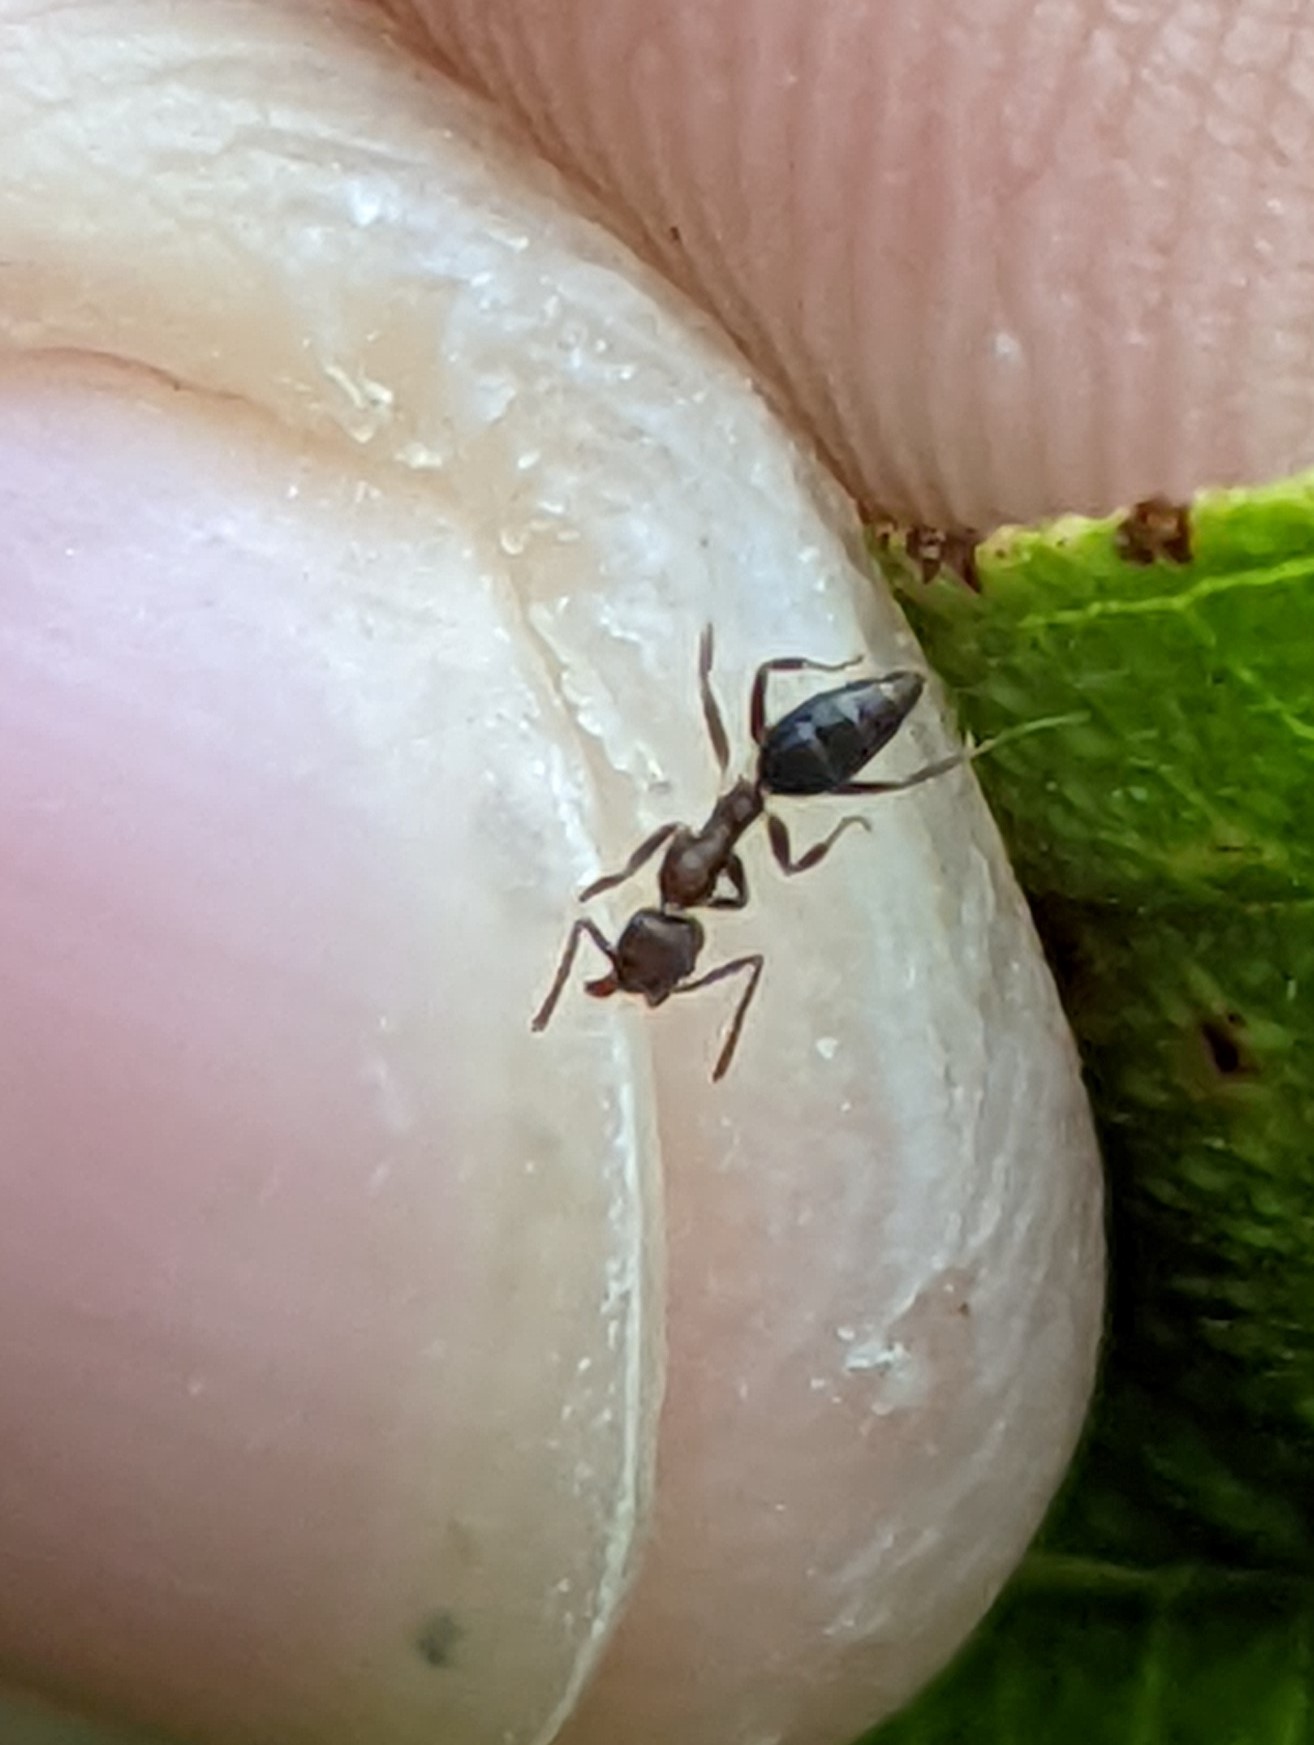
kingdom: Animalia
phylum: Arthropoda
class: Insecta
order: Hymenoptera
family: Formicidae
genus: Technomyrmex
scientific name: Technomyrmex kraepelini
